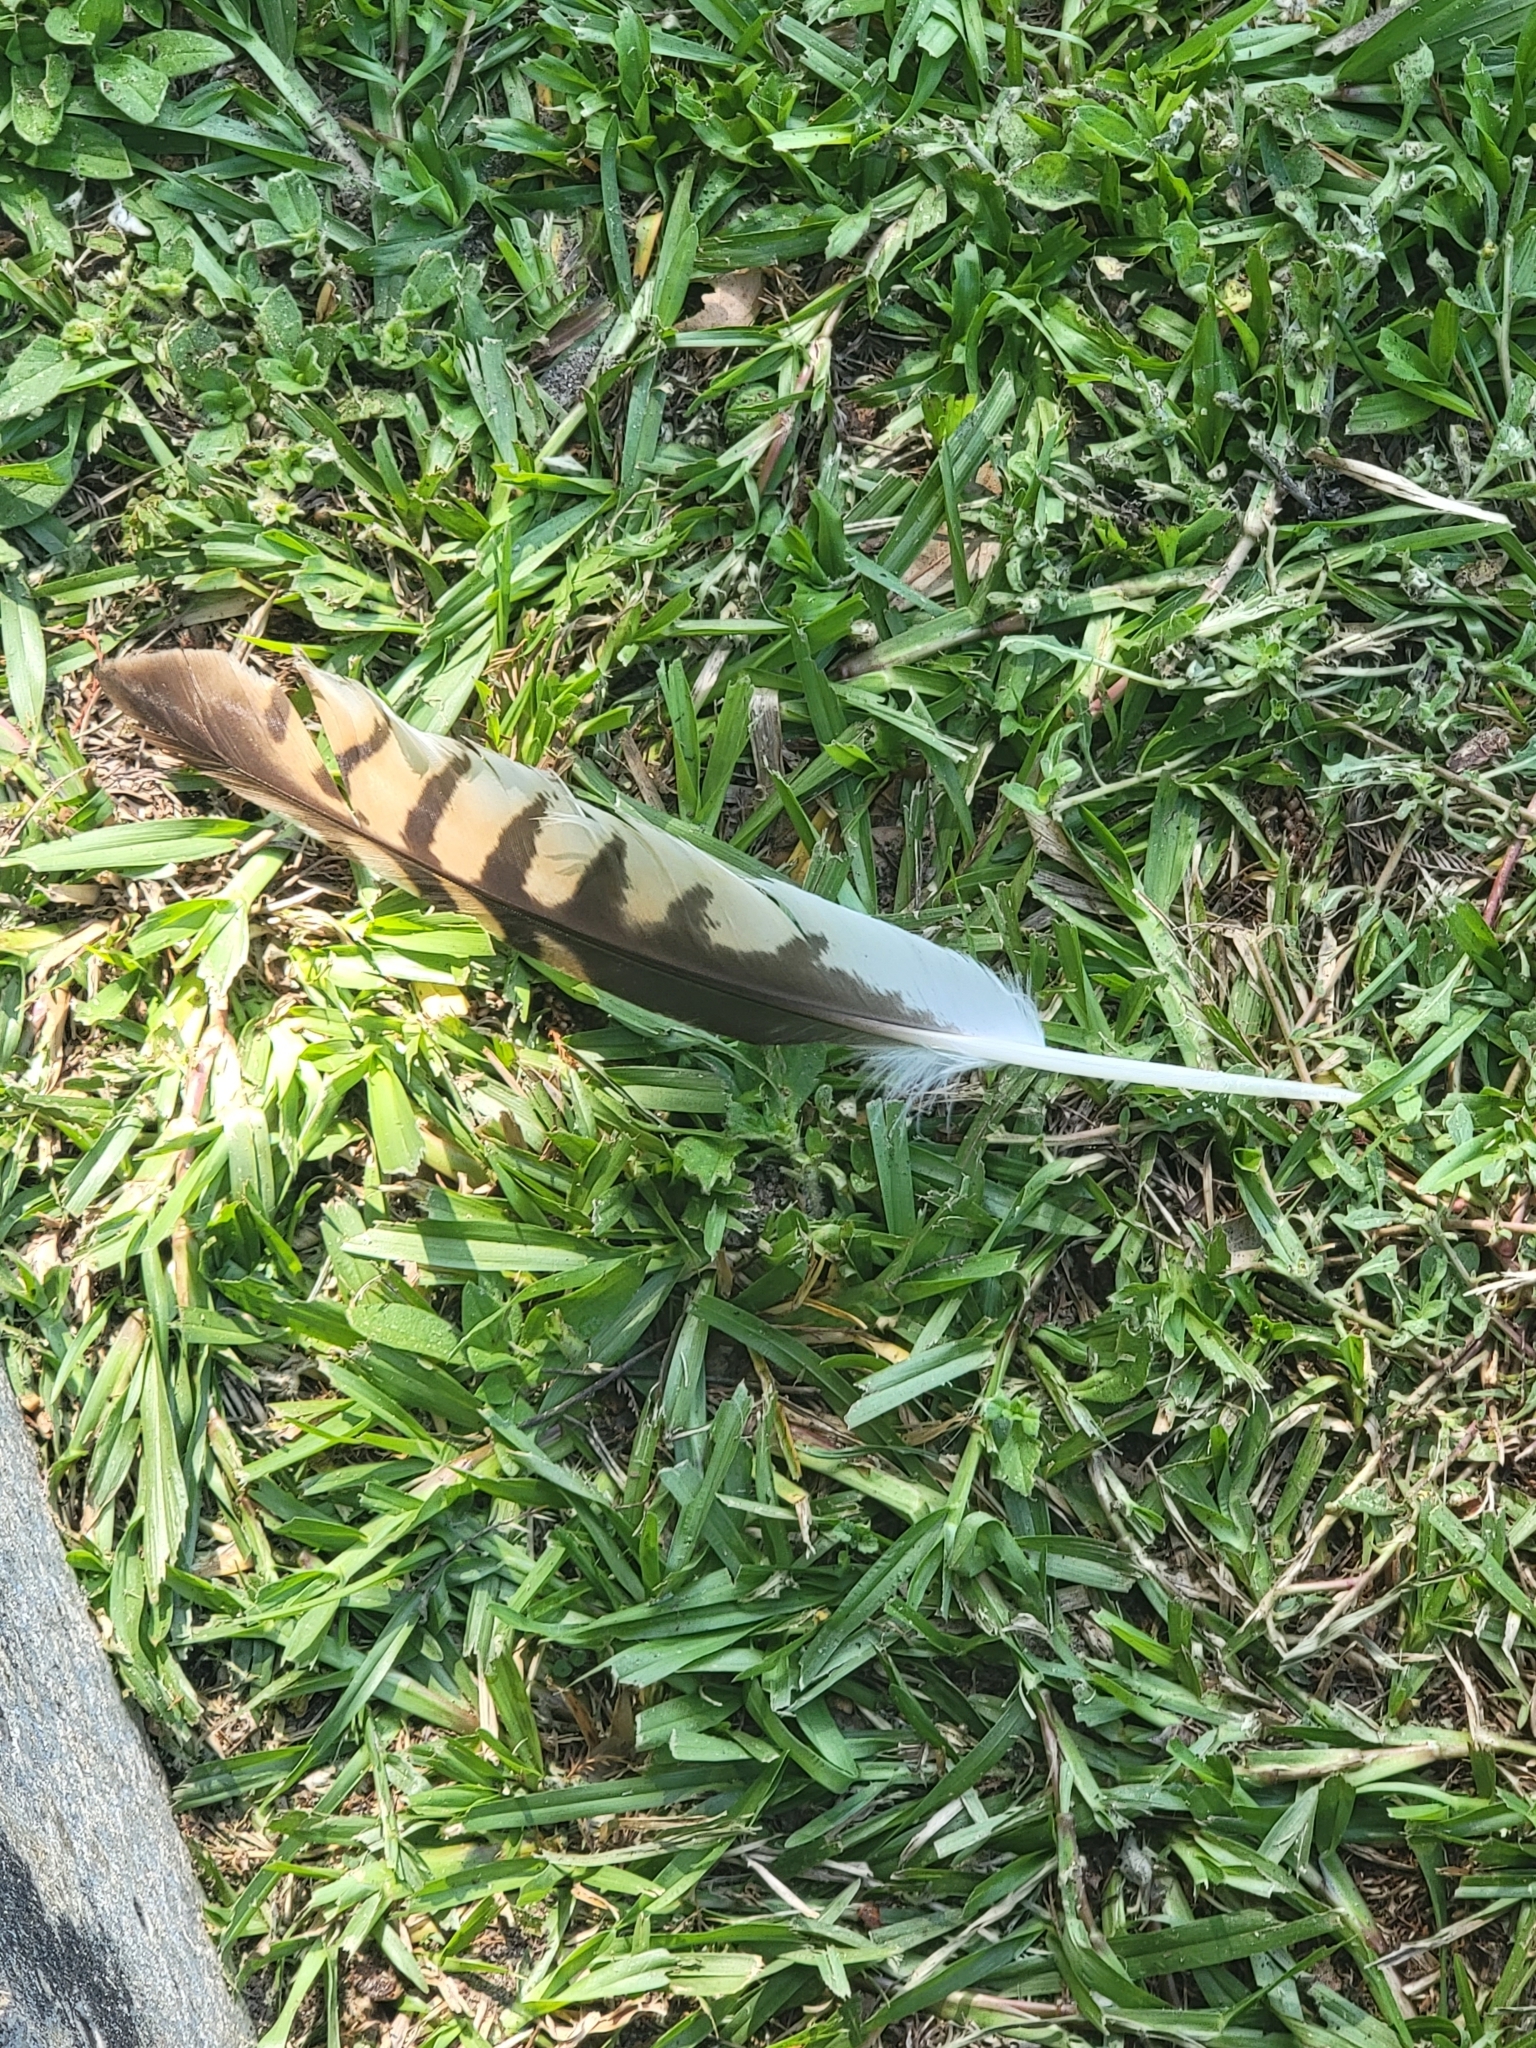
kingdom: Animalia
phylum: Chordata
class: Aves
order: Accipitriformes
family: Accipitridae
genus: Buteo
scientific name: Buteo lineatus
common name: Red-shouldered hawk
